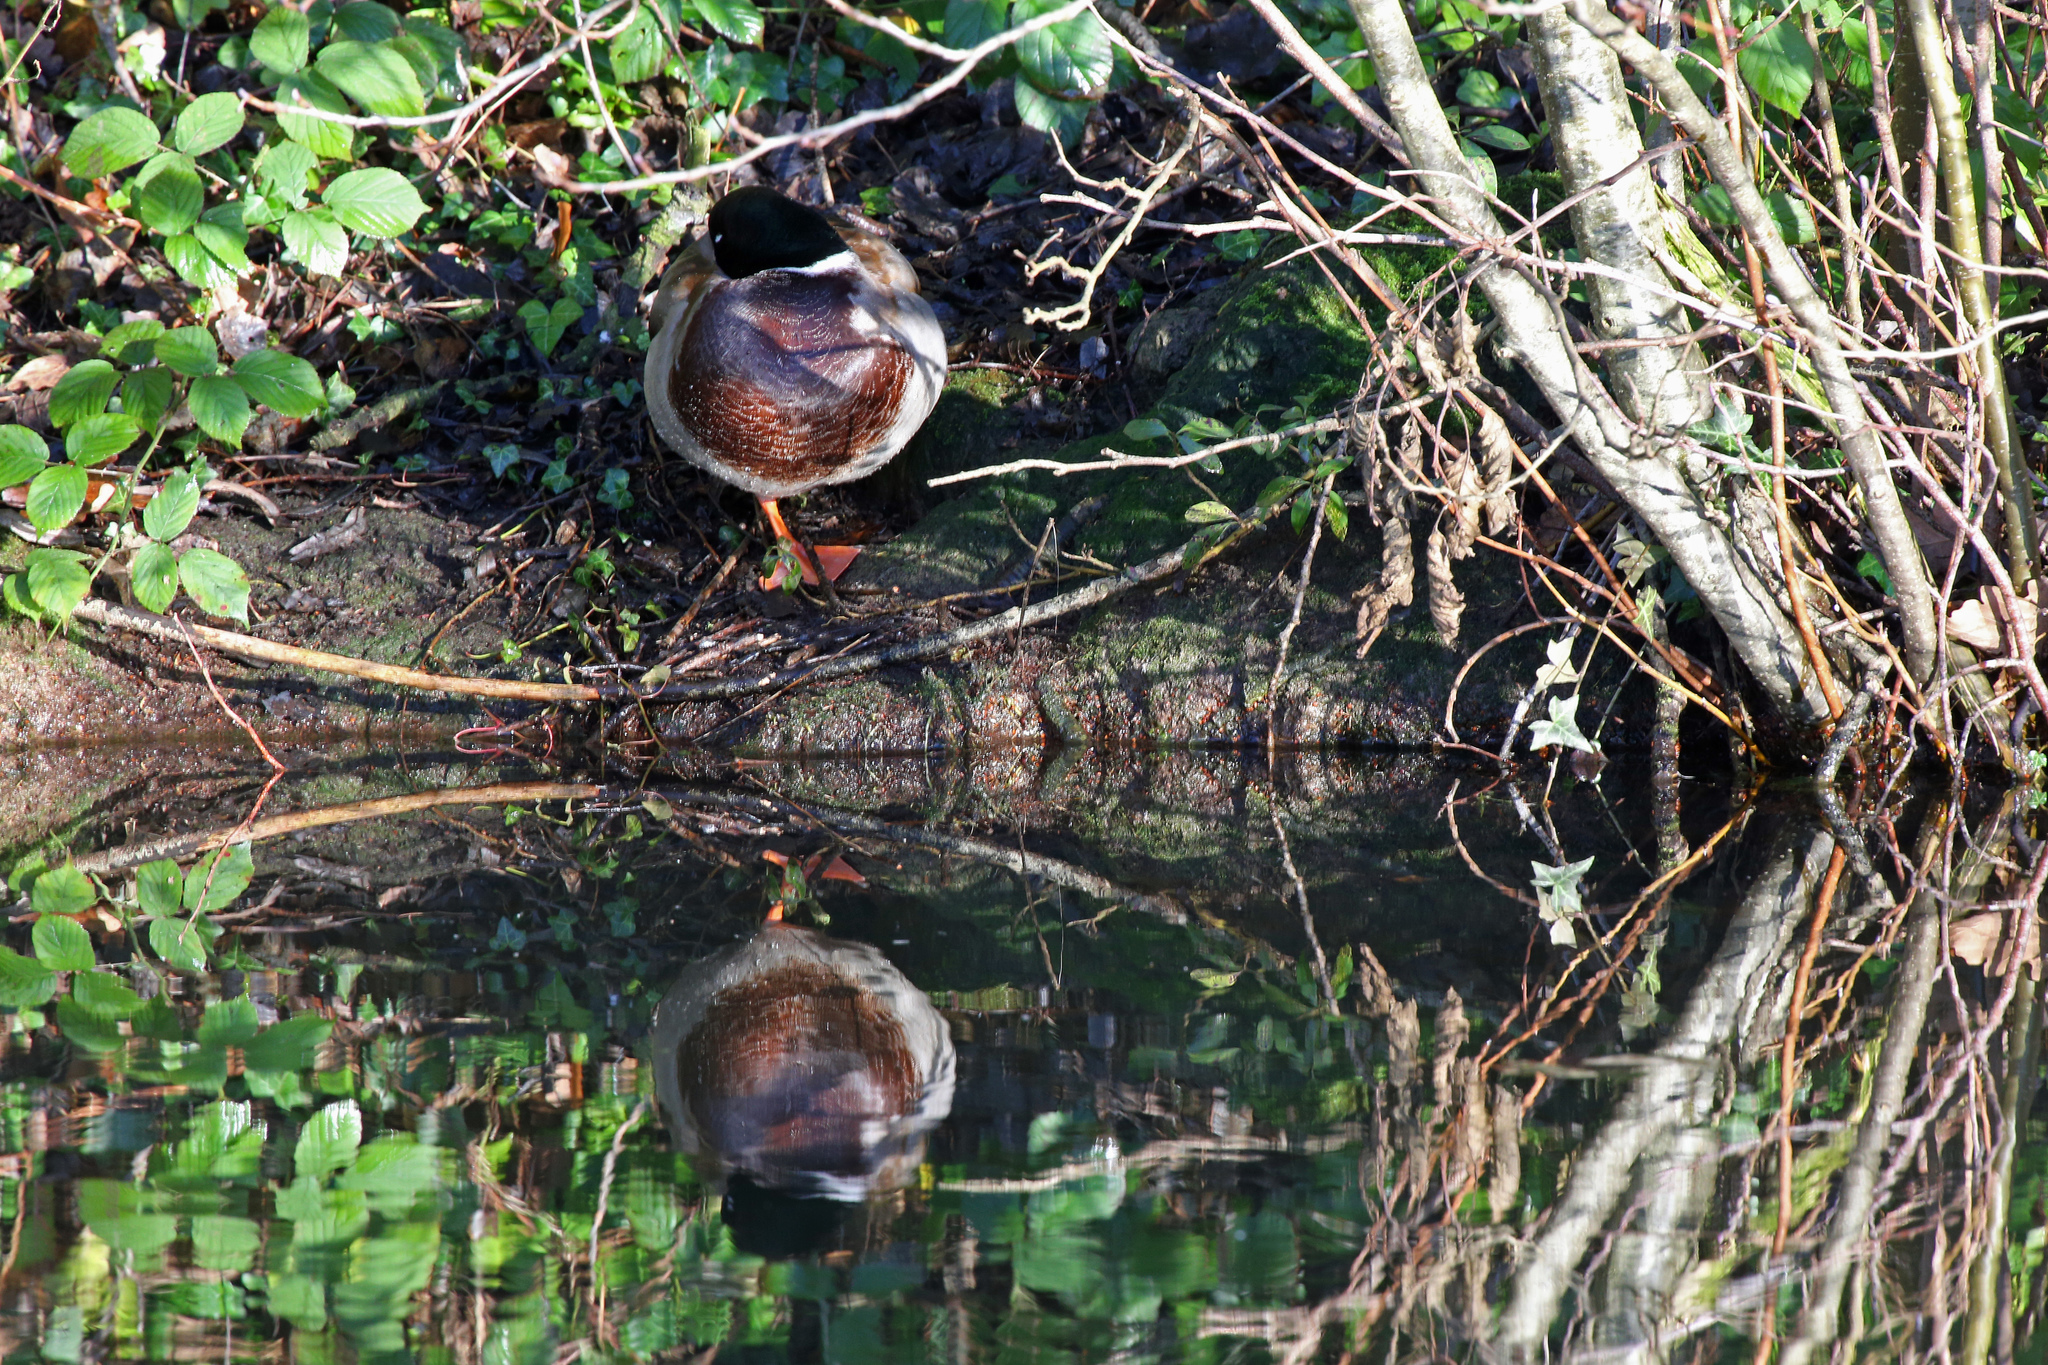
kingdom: Animalia
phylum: Chordata
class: Aves
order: Anseriformes
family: Anatidae
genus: Anas
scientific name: Anas platyrhynchos
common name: Mallard
